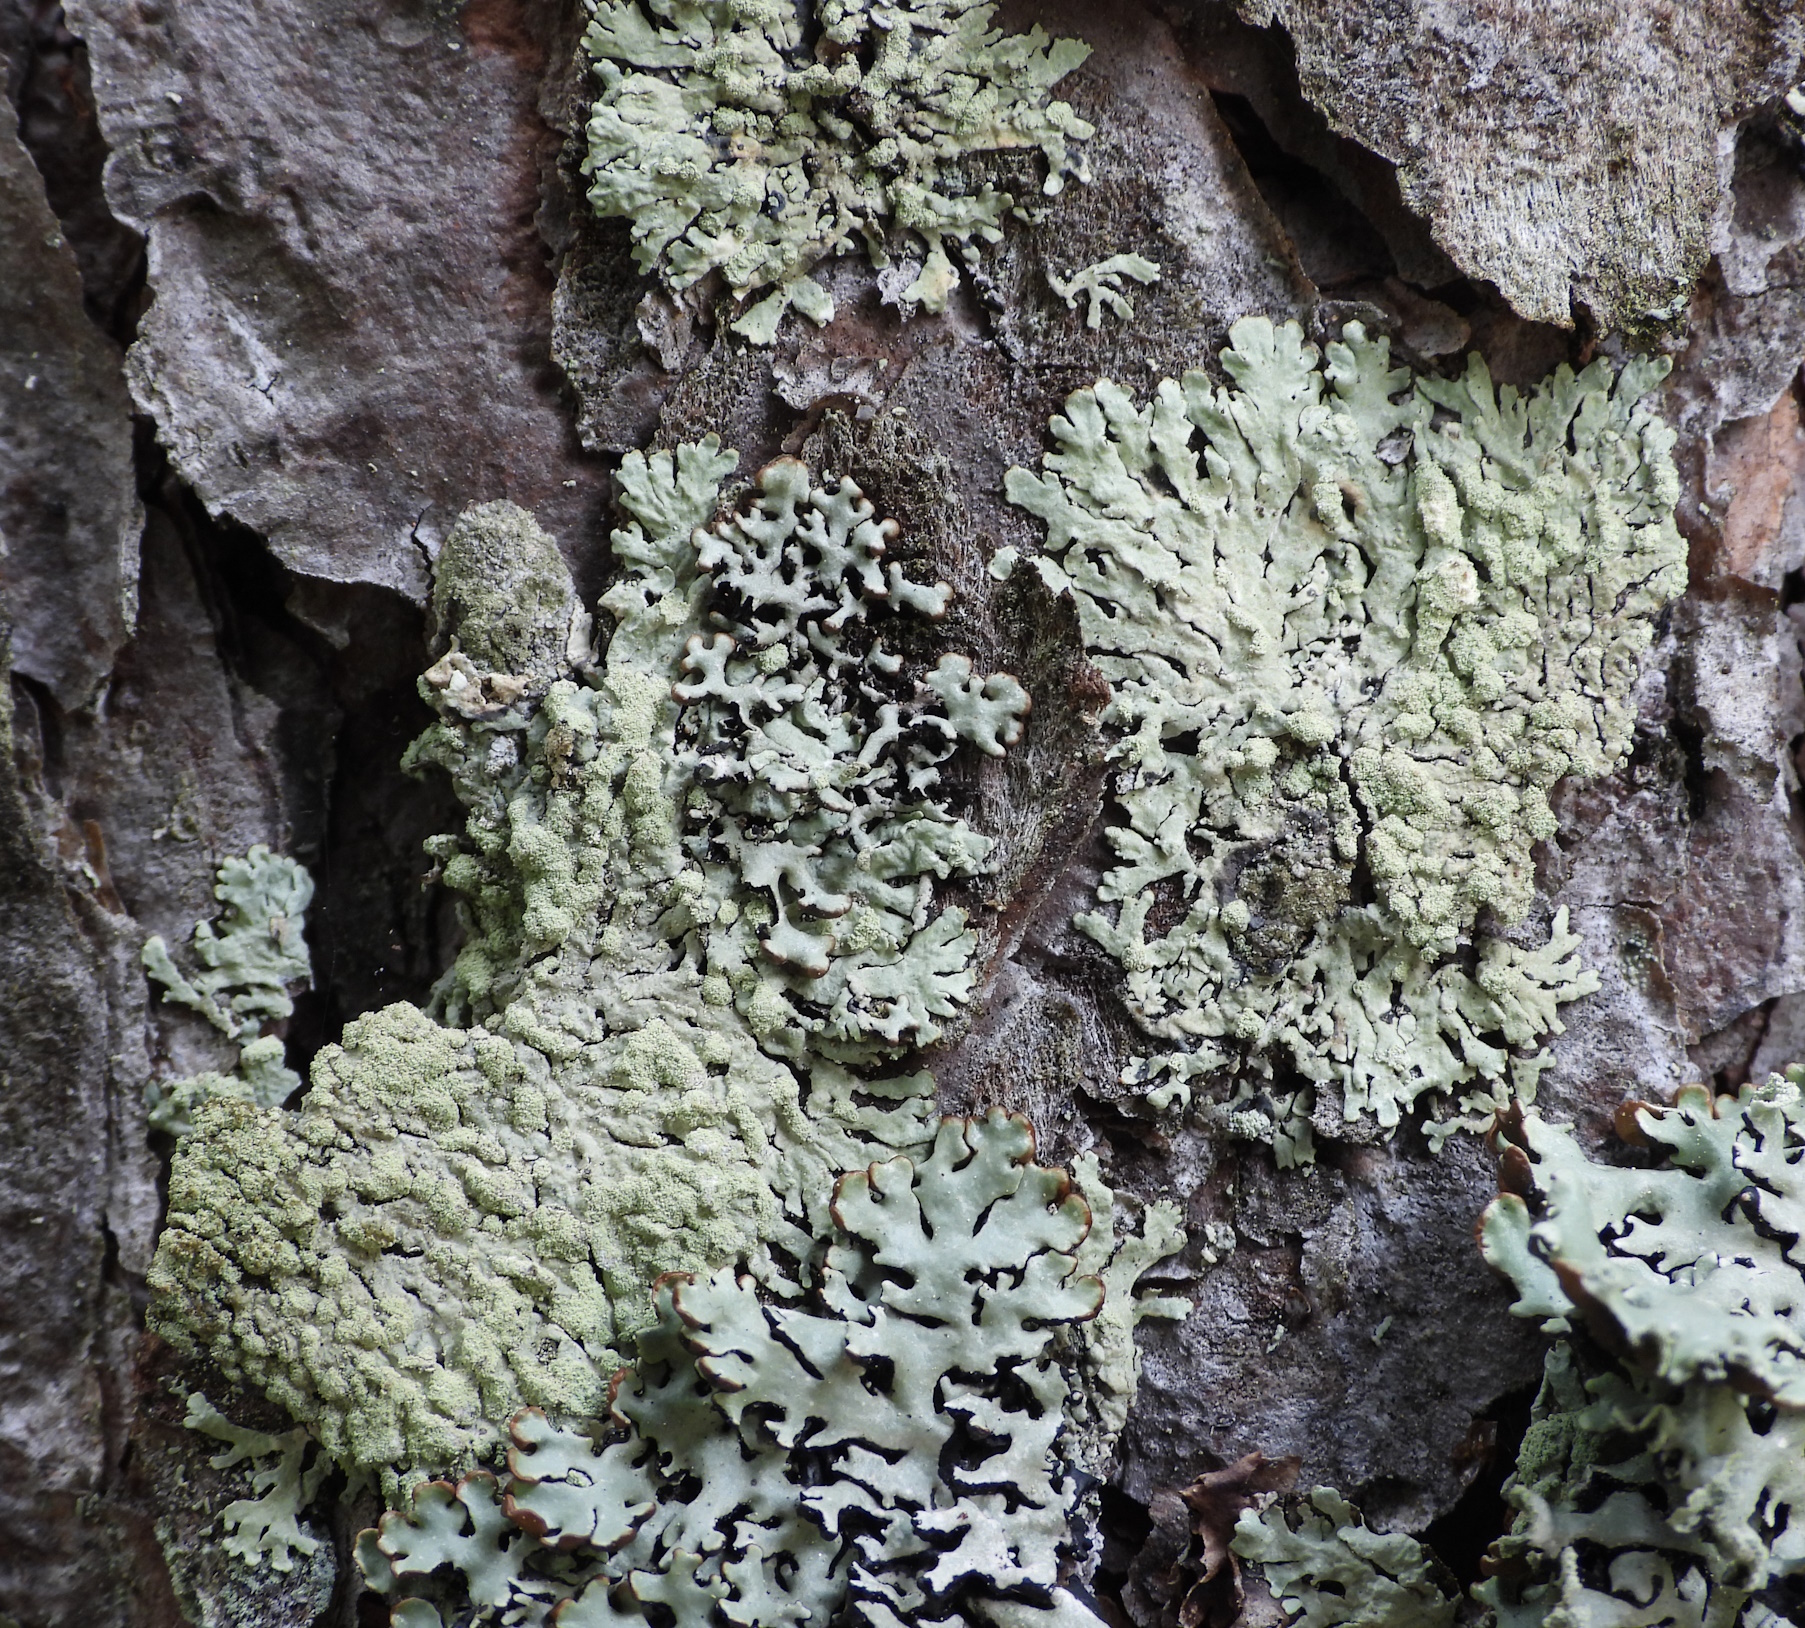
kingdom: Fungi
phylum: Ascomycota
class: Lecanoromycetes
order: Lecanorales
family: Parmeliaceae
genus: Parmeliopsis
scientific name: Parmeliopsis ambigua
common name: Green starburst lichen
